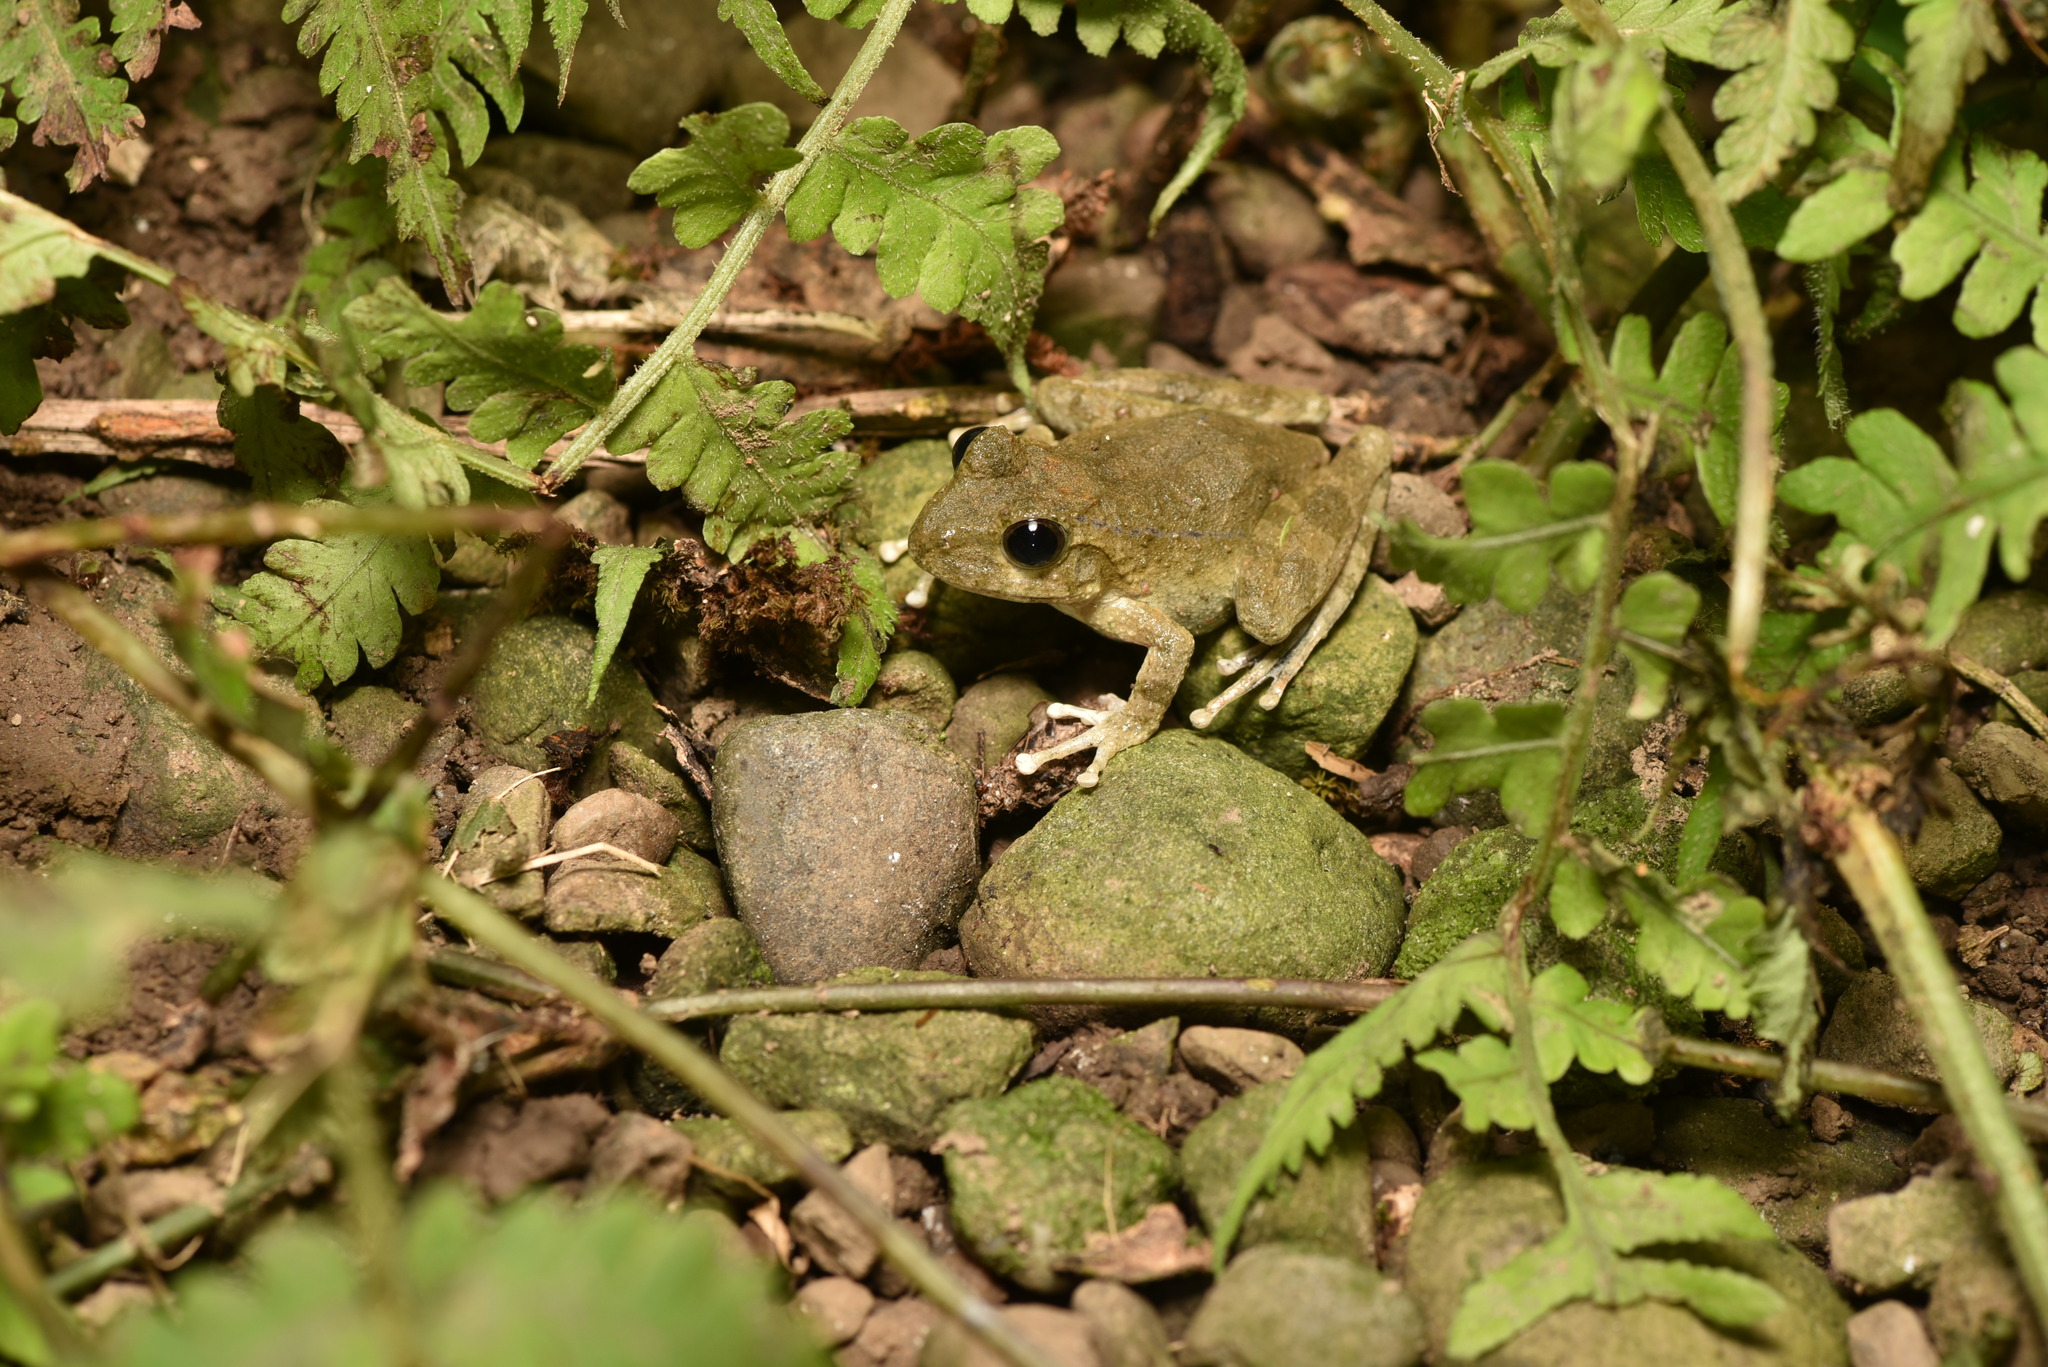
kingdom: Animalia
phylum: Chordata
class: Amphibia
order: Anura
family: Rhacophoridae
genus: Buergeria
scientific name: Buergeria otai
